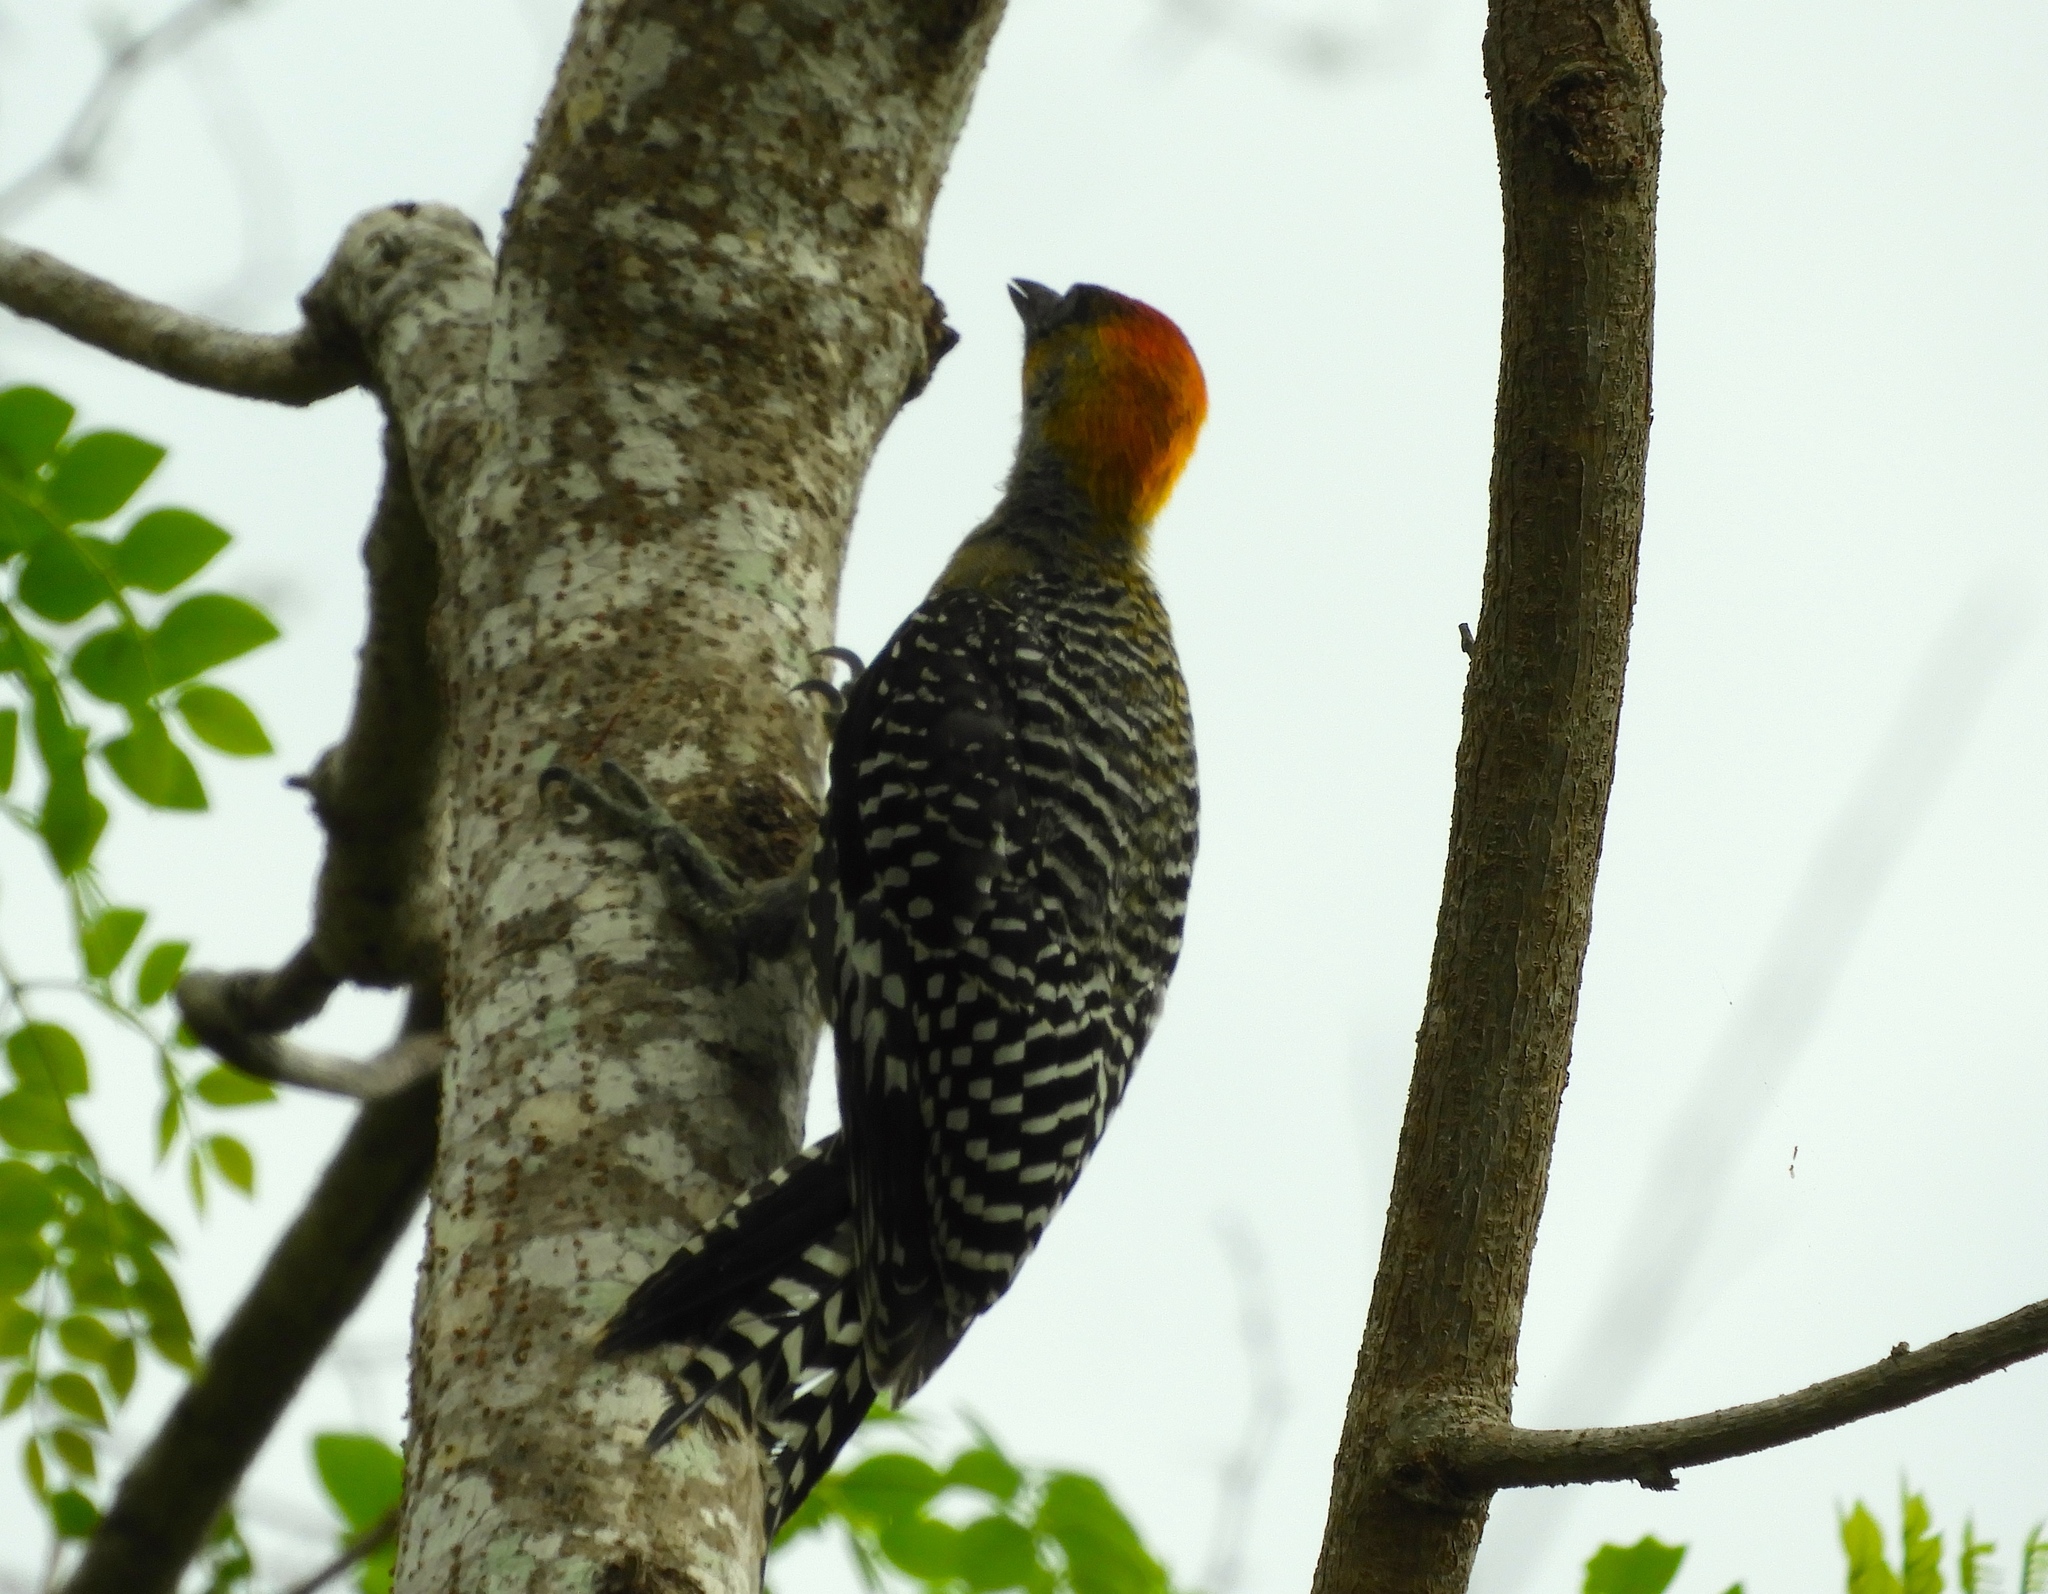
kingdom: Animalia
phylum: Chordata
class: Aves
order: Piciformes
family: Picidae
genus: Melanerpes
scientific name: Melanerpes chrysogenys
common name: Golden-cheeked woodpecker
